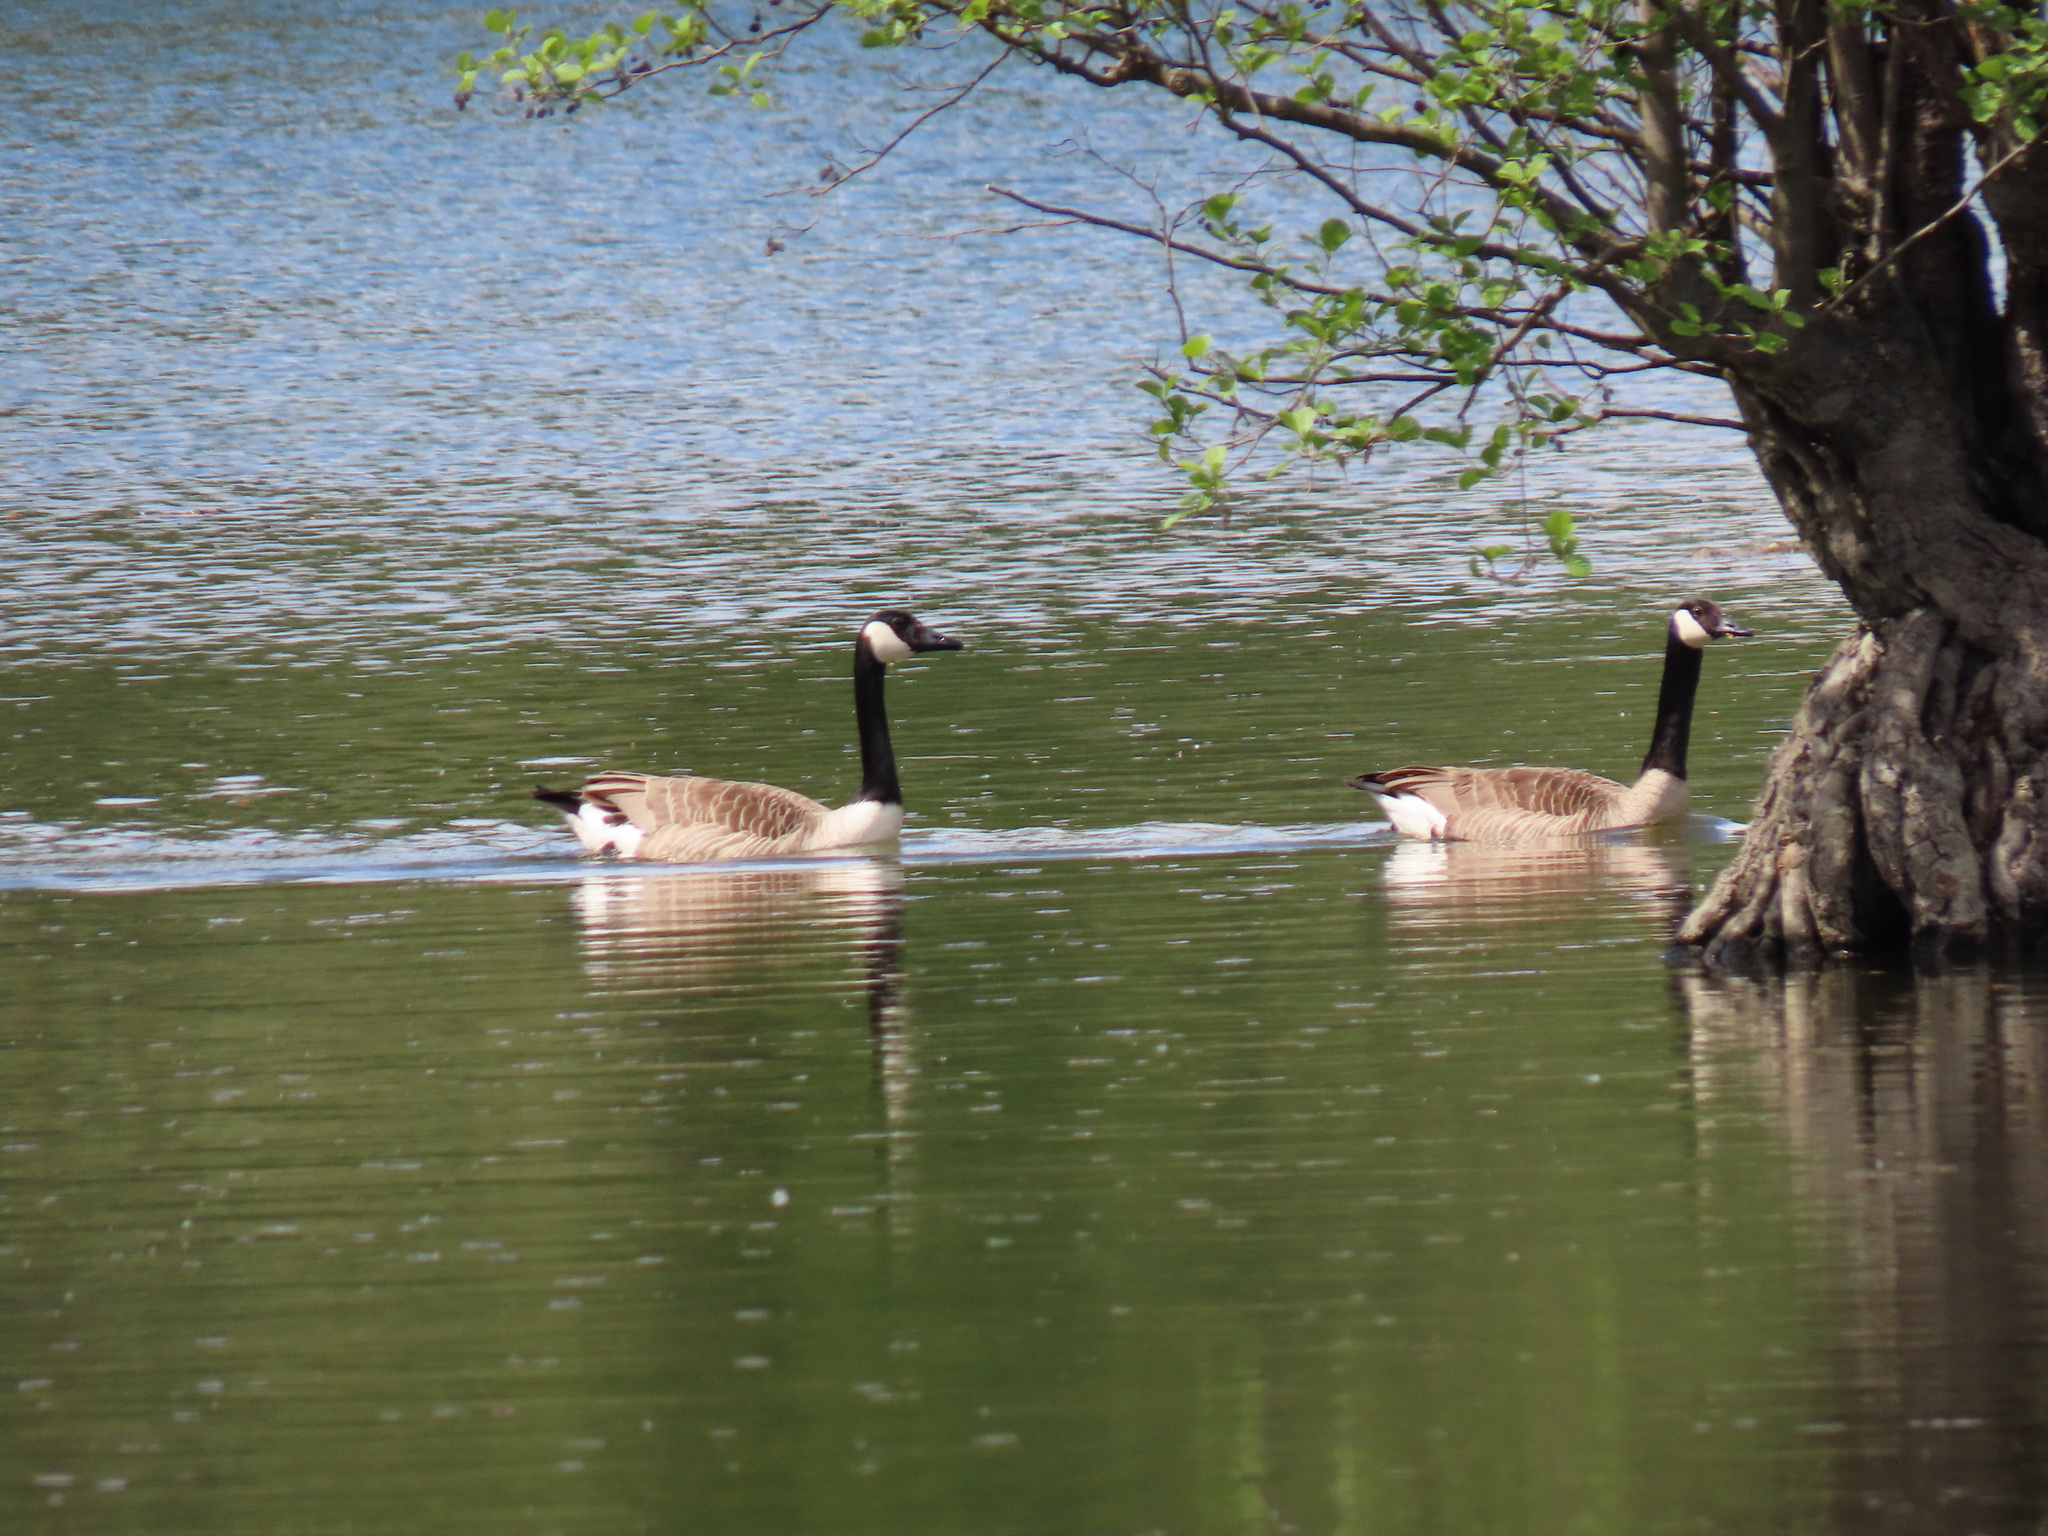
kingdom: Animalia
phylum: Chordata
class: Aves
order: Anseriformes
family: Anatidae
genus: Branta
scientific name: Branta canadensis
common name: Canada goose
